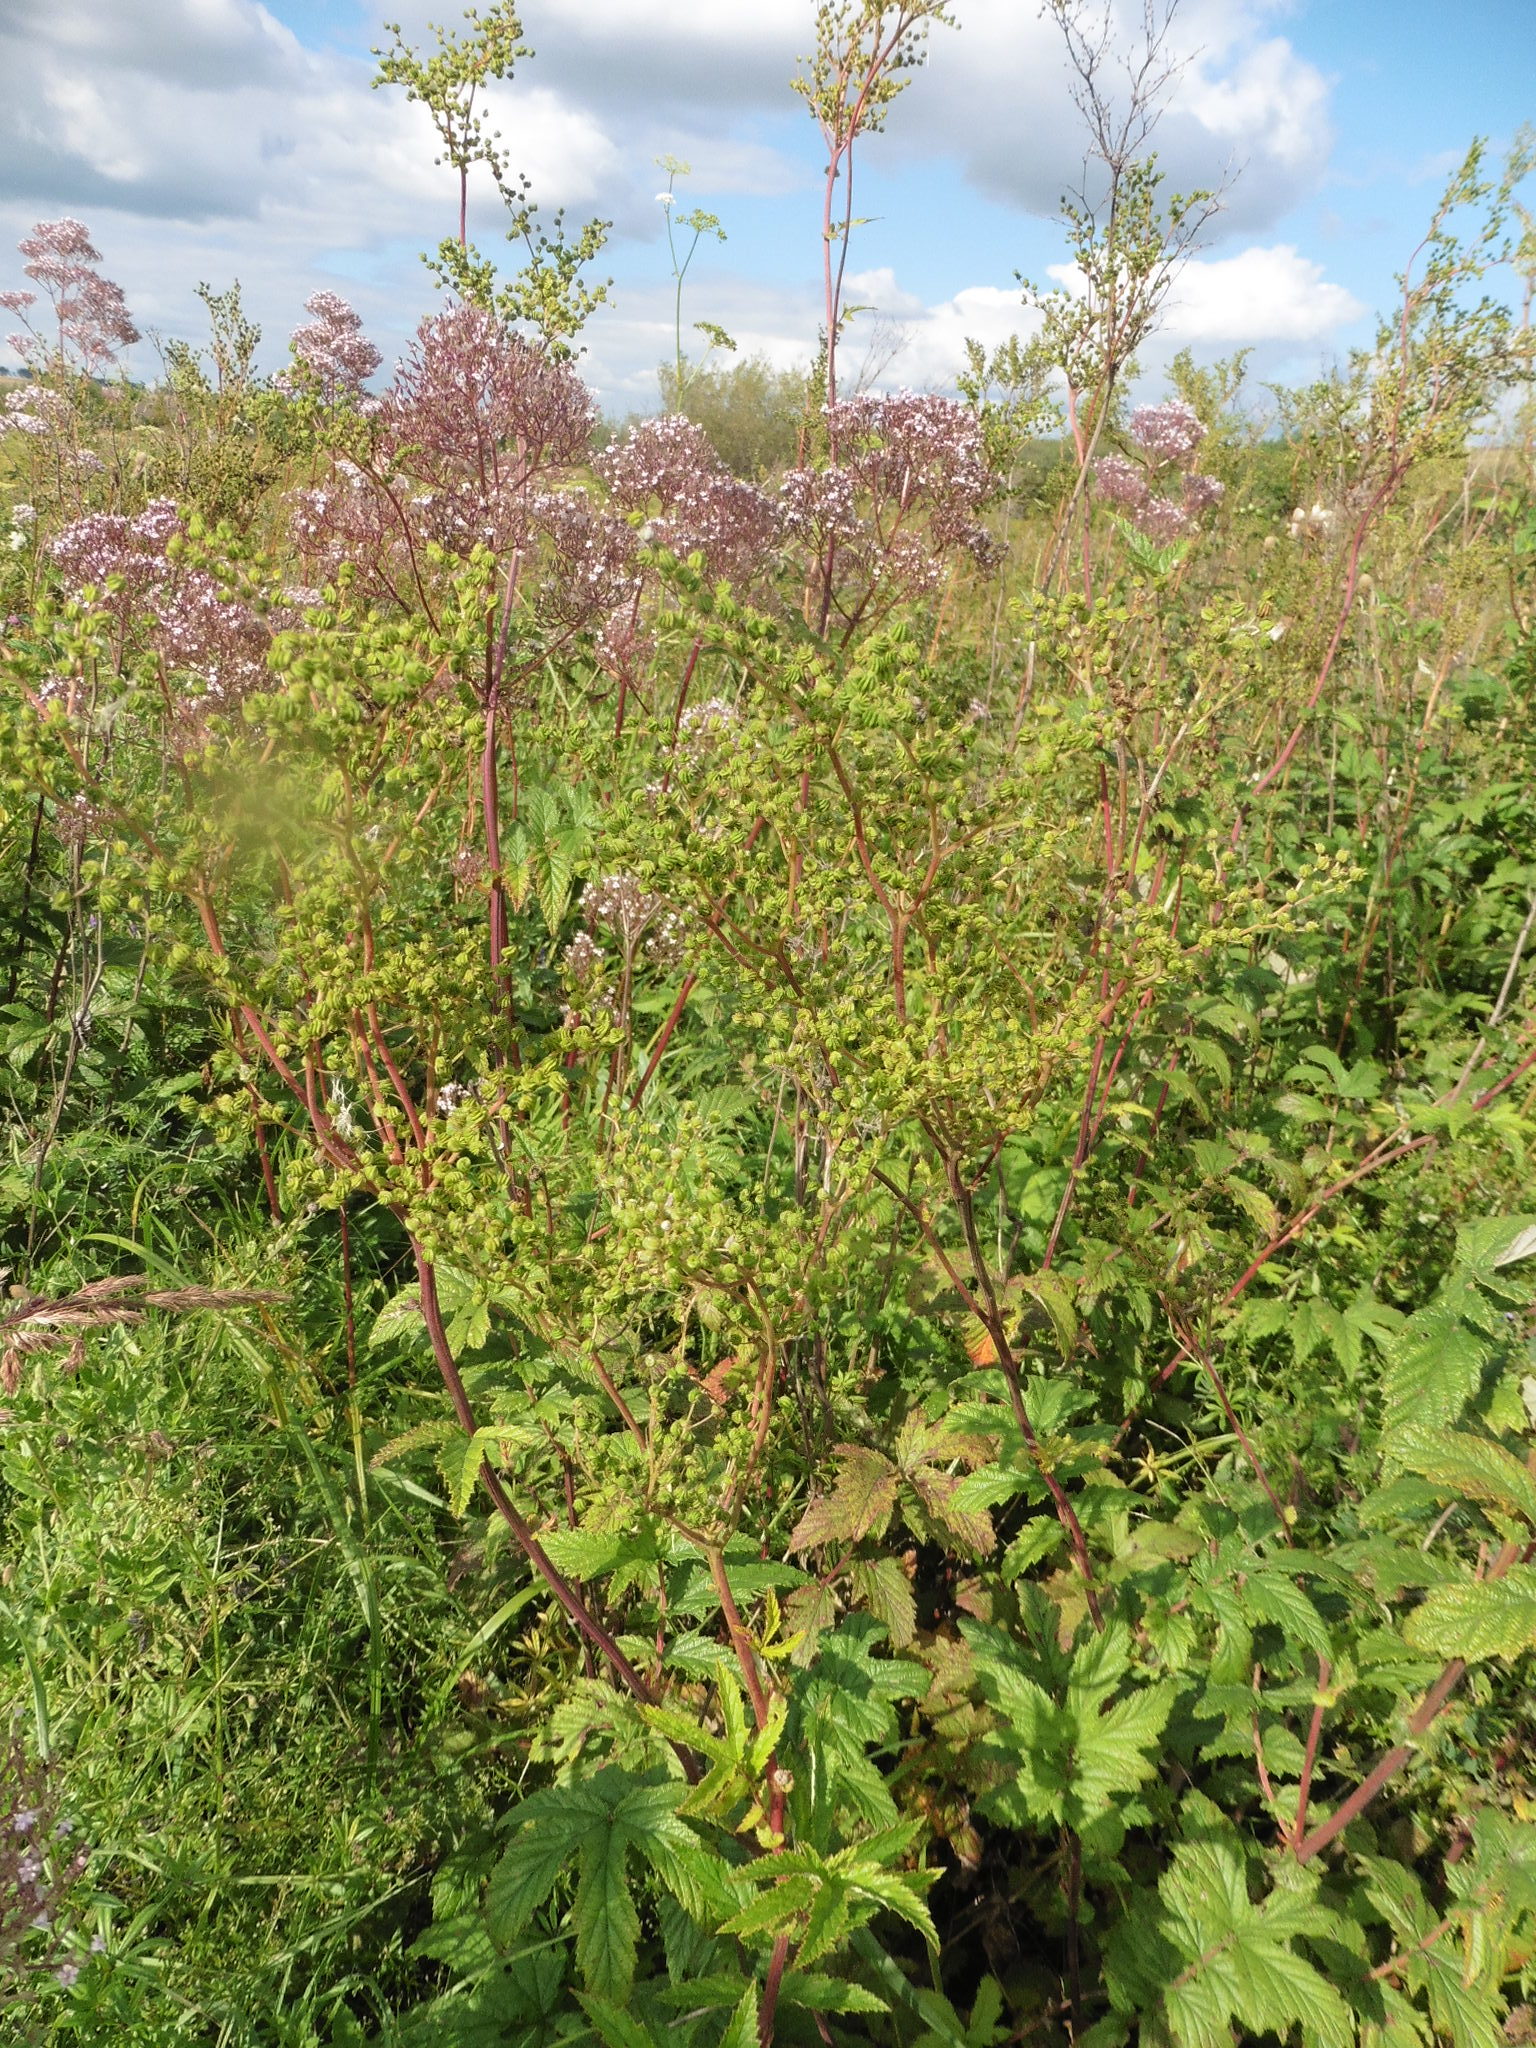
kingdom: Plantae
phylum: Tracheophyta
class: Magnoliopsida
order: Rosales
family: Rosaceae
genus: Filipendula
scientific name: Filipendula ulmaria
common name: Meadowsweet
